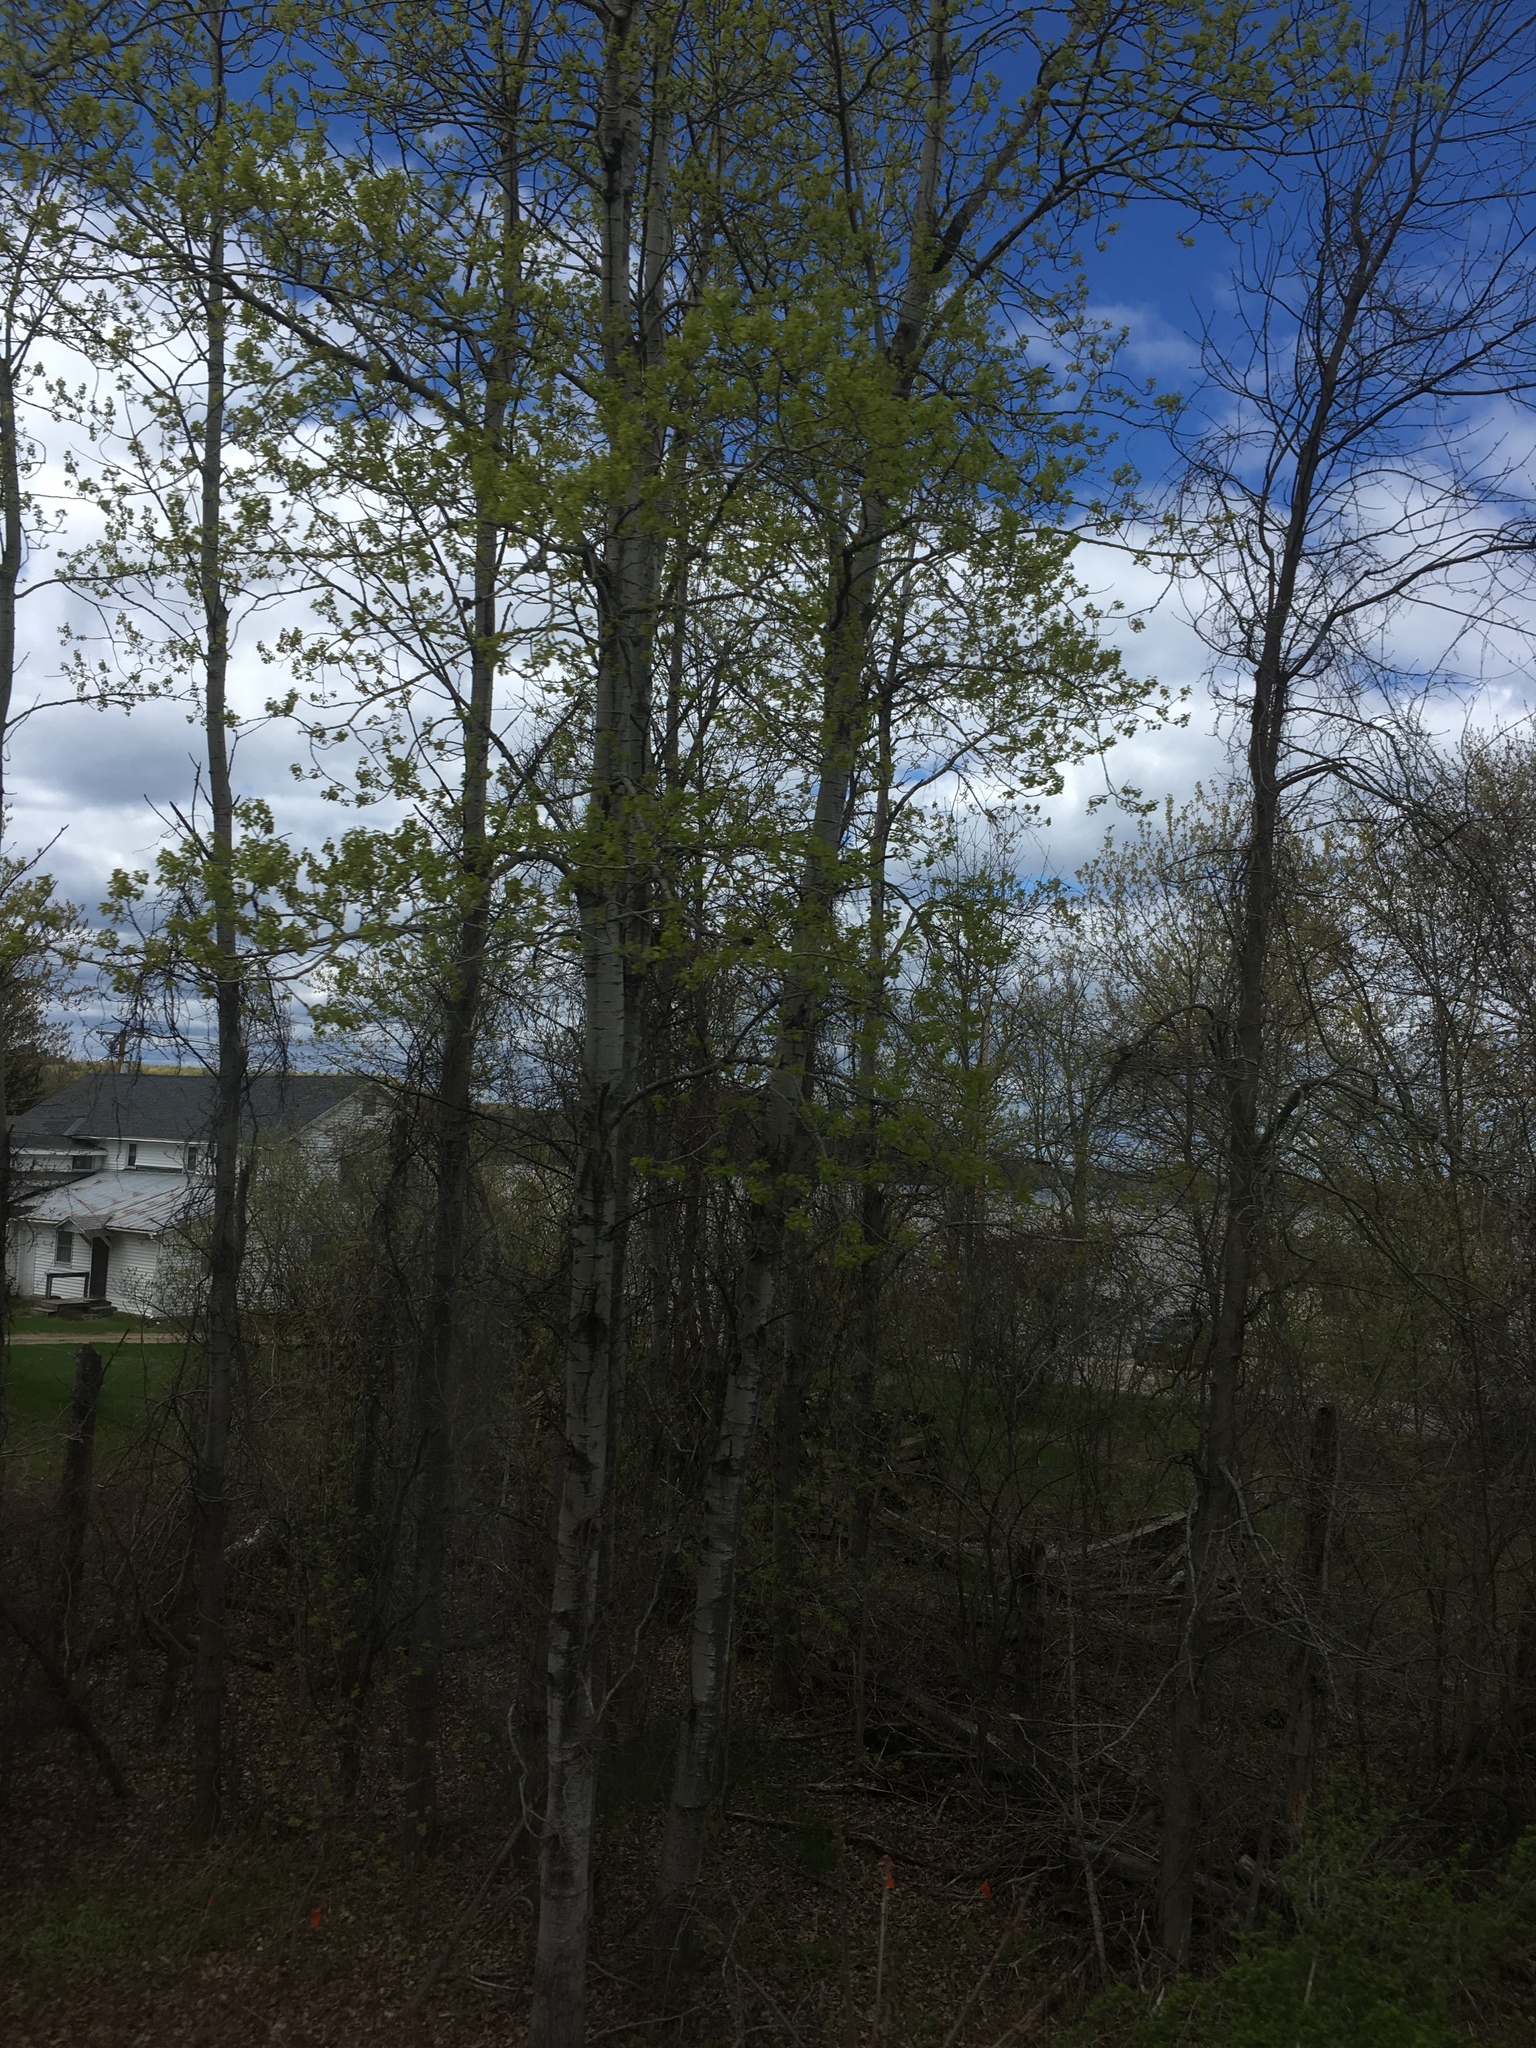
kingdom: Plantae
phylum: Tracheophyta
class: Magnoliopsida
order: Malpighiales
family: Salicaceae
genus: Populus
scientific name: Populus tremuloides
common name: Quaking aspen
